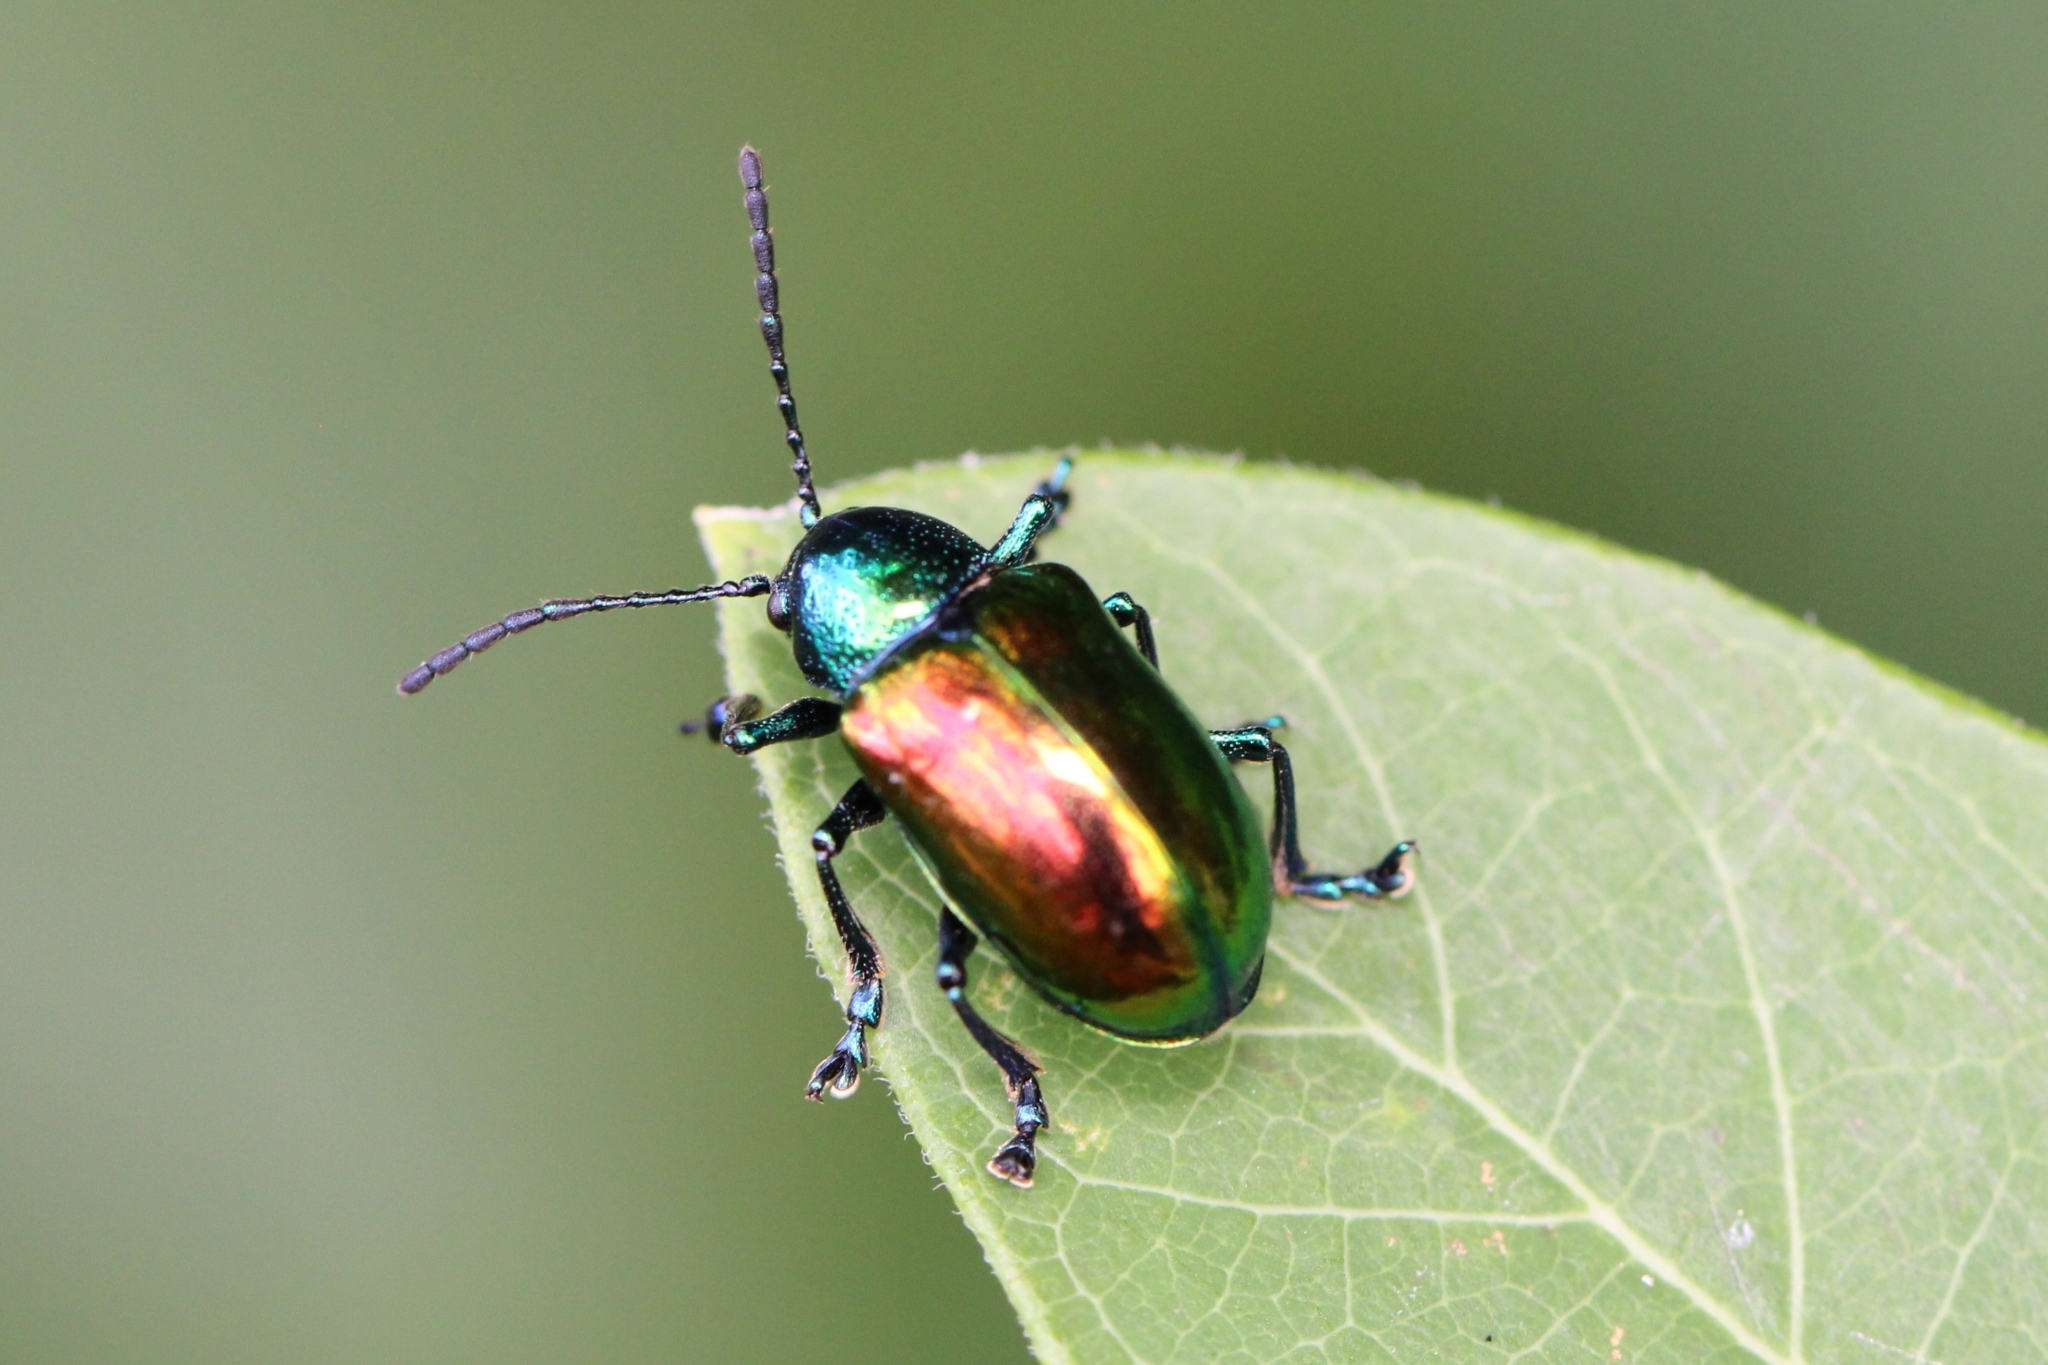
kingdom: Animalia
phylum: Arthropoda
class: Insecta
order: Coleoptera
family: Chrysomelidae
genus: Chrysochus
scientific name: Chrysochus auratus
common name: Dogbane leaf beetle
